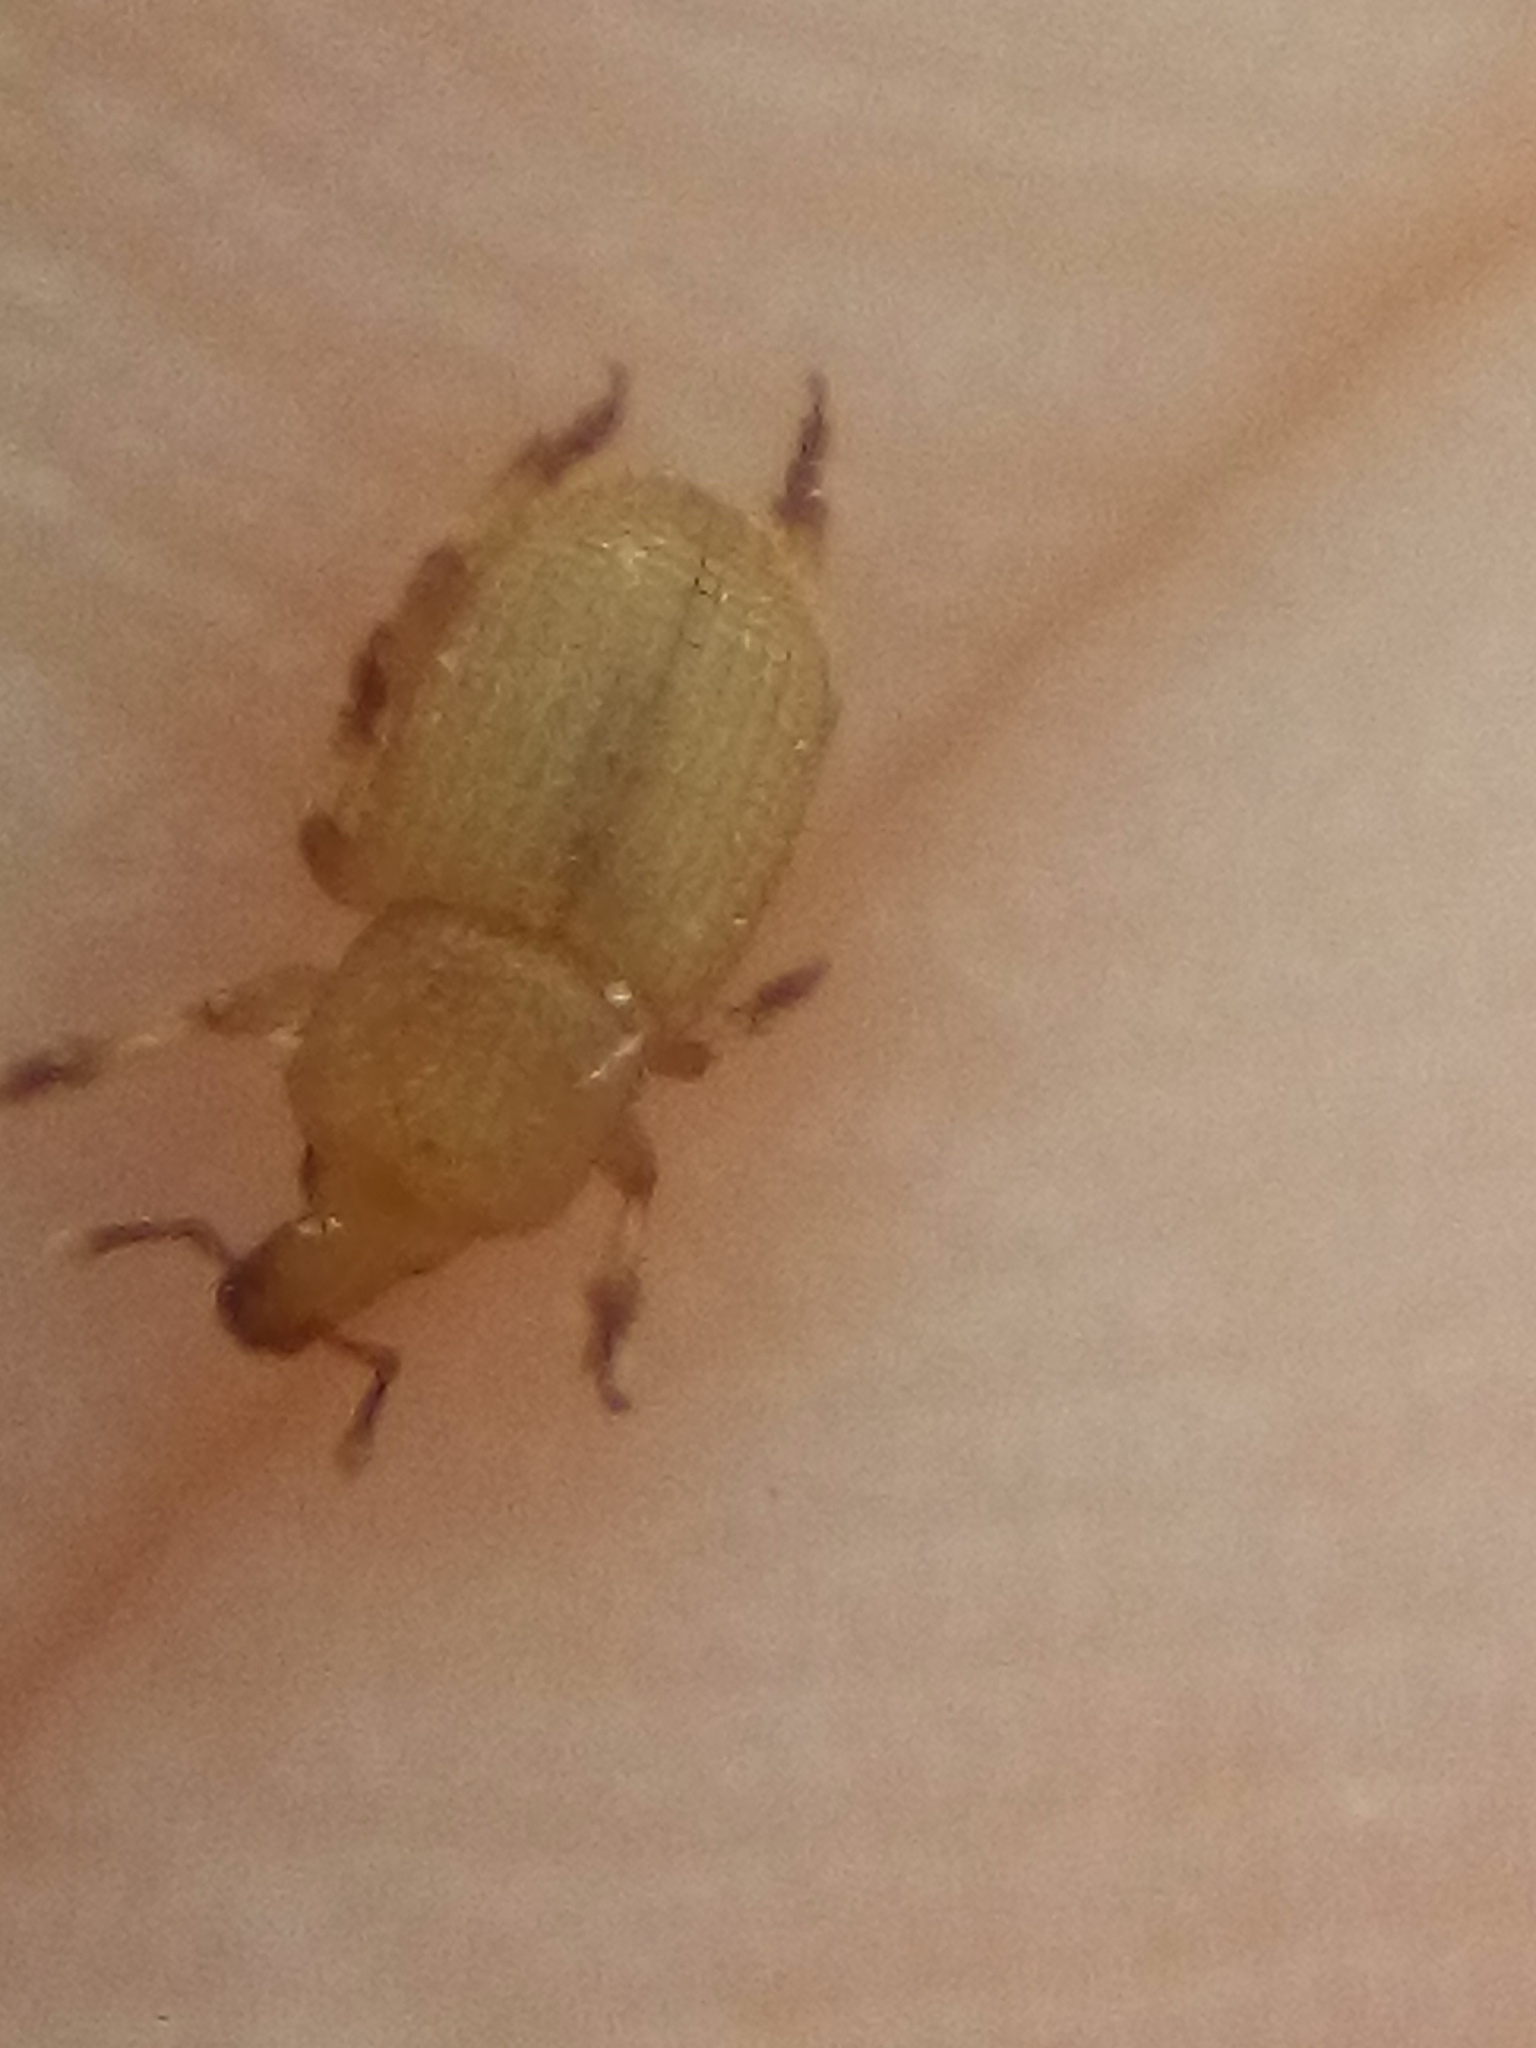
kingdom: Animalia
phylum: Arthropoda
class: Insecta
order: Coleoptera
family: Curculionidae
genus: Aphela
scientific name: Aphela algarum
